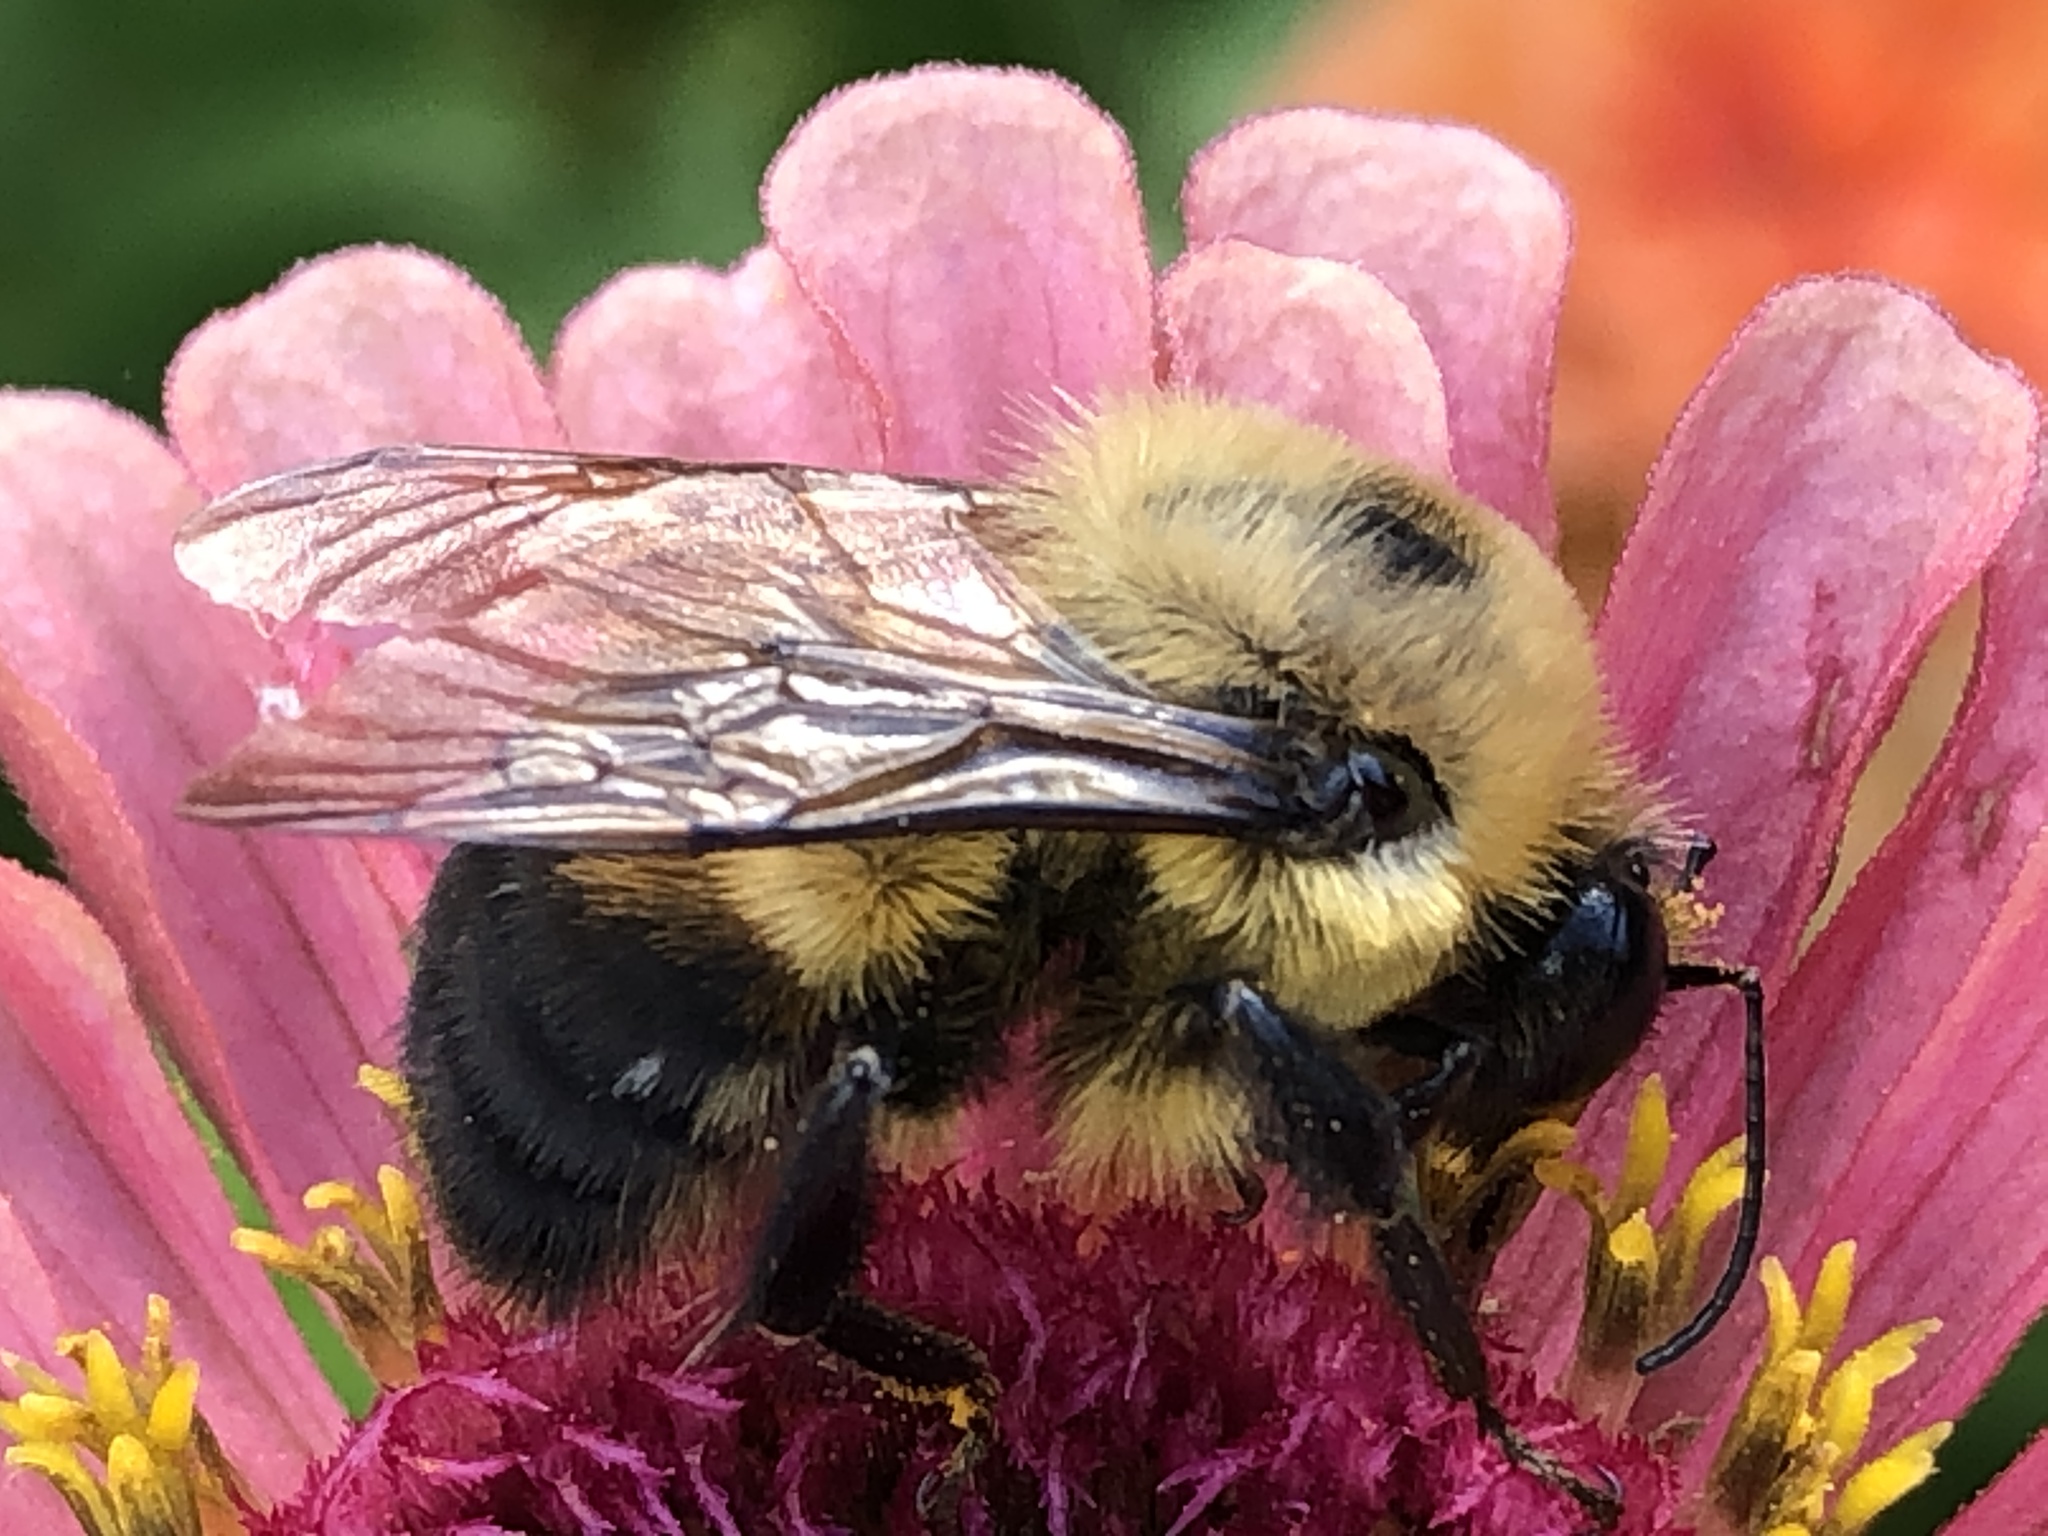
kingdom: Animalia
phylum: Arthropoda
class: Insecta
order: Hymenoptera
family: Apidae
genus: Bombus
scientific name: Bombus griseocollis
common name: Brown-belted bumble bee
